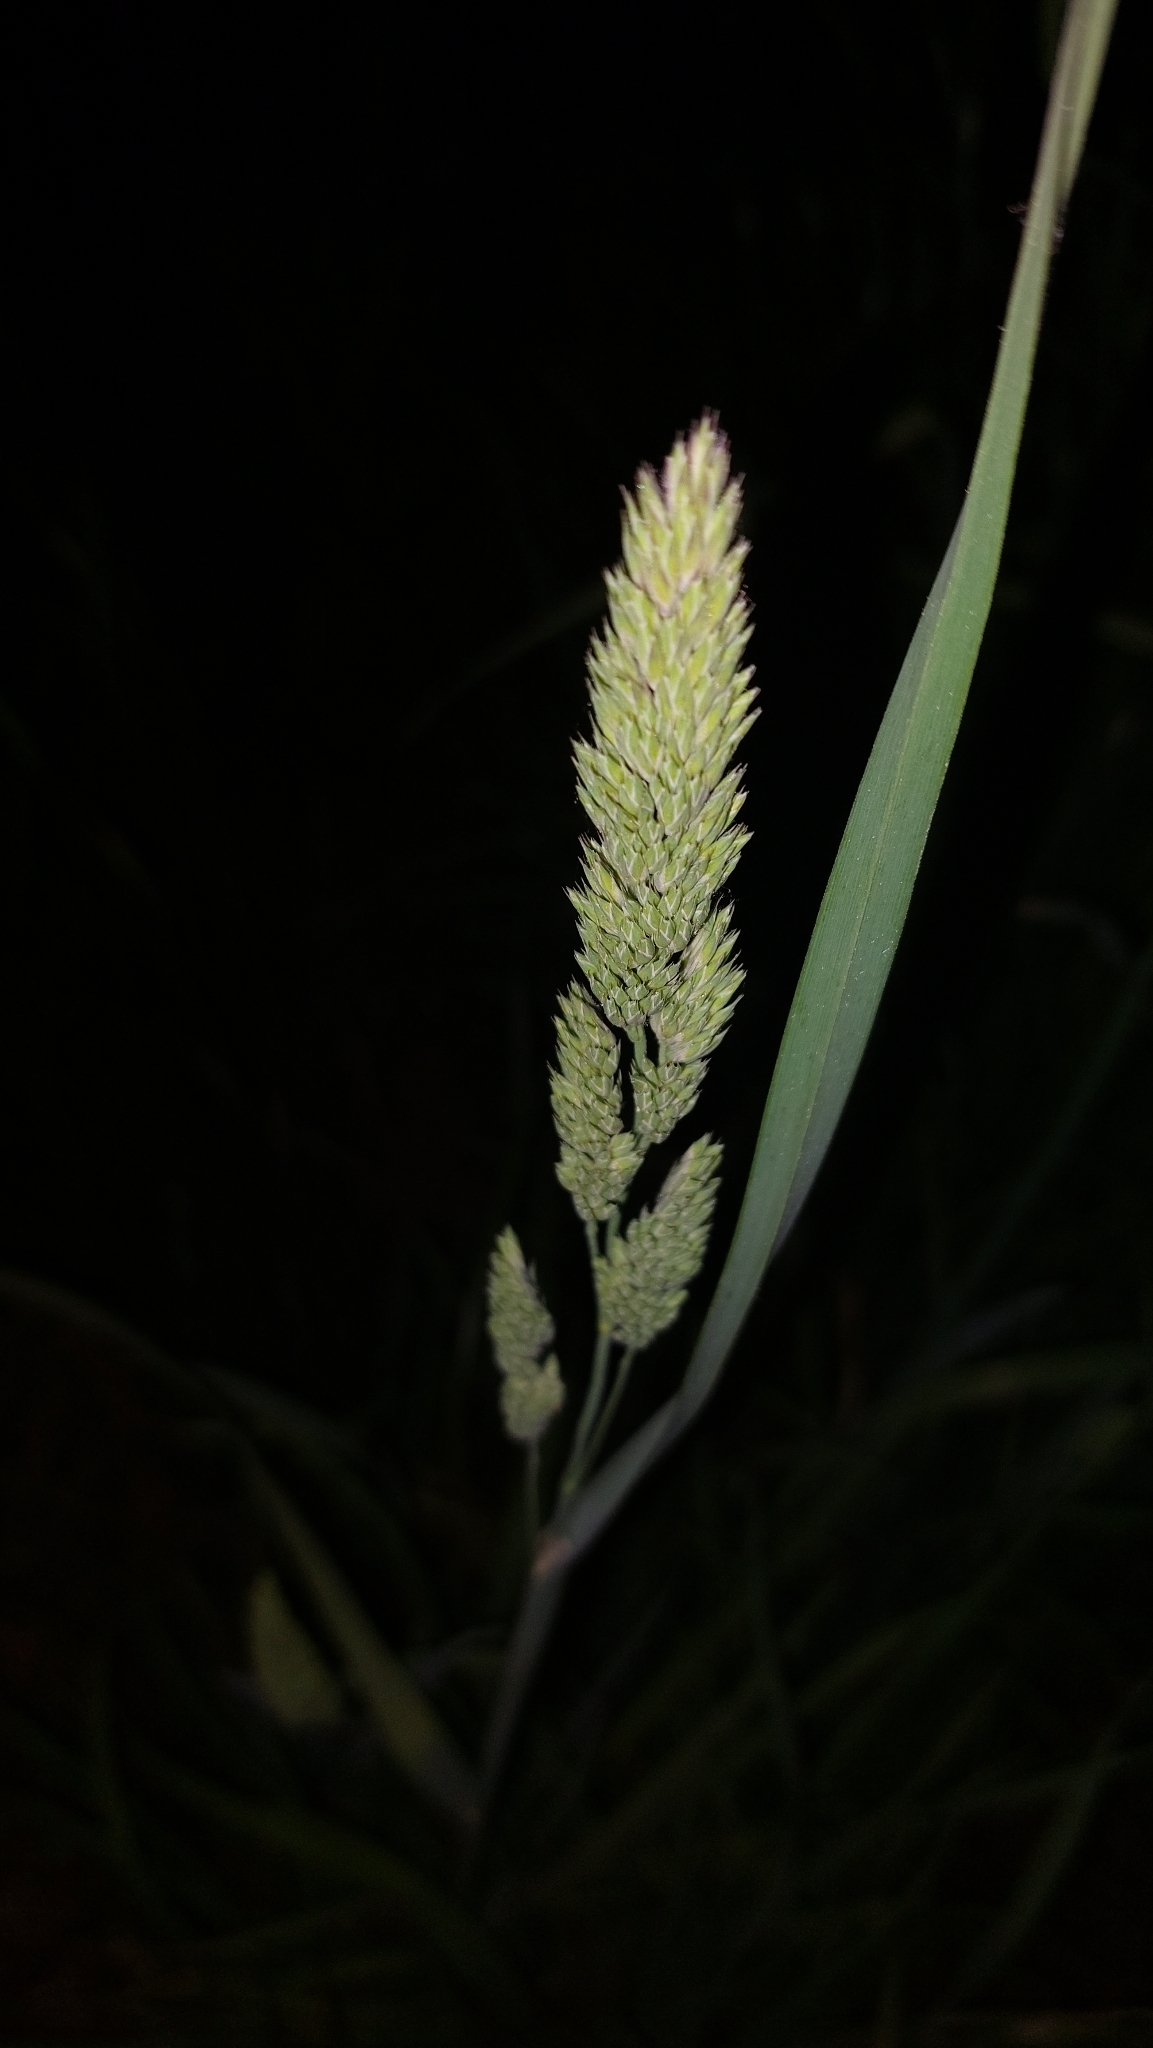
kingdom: Plantae
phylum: Tracheophyta
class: Liliopsida
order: Poales
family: Poaceae
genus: Dactylis
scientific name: Dactylis glomerata
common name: Orchardgrass
